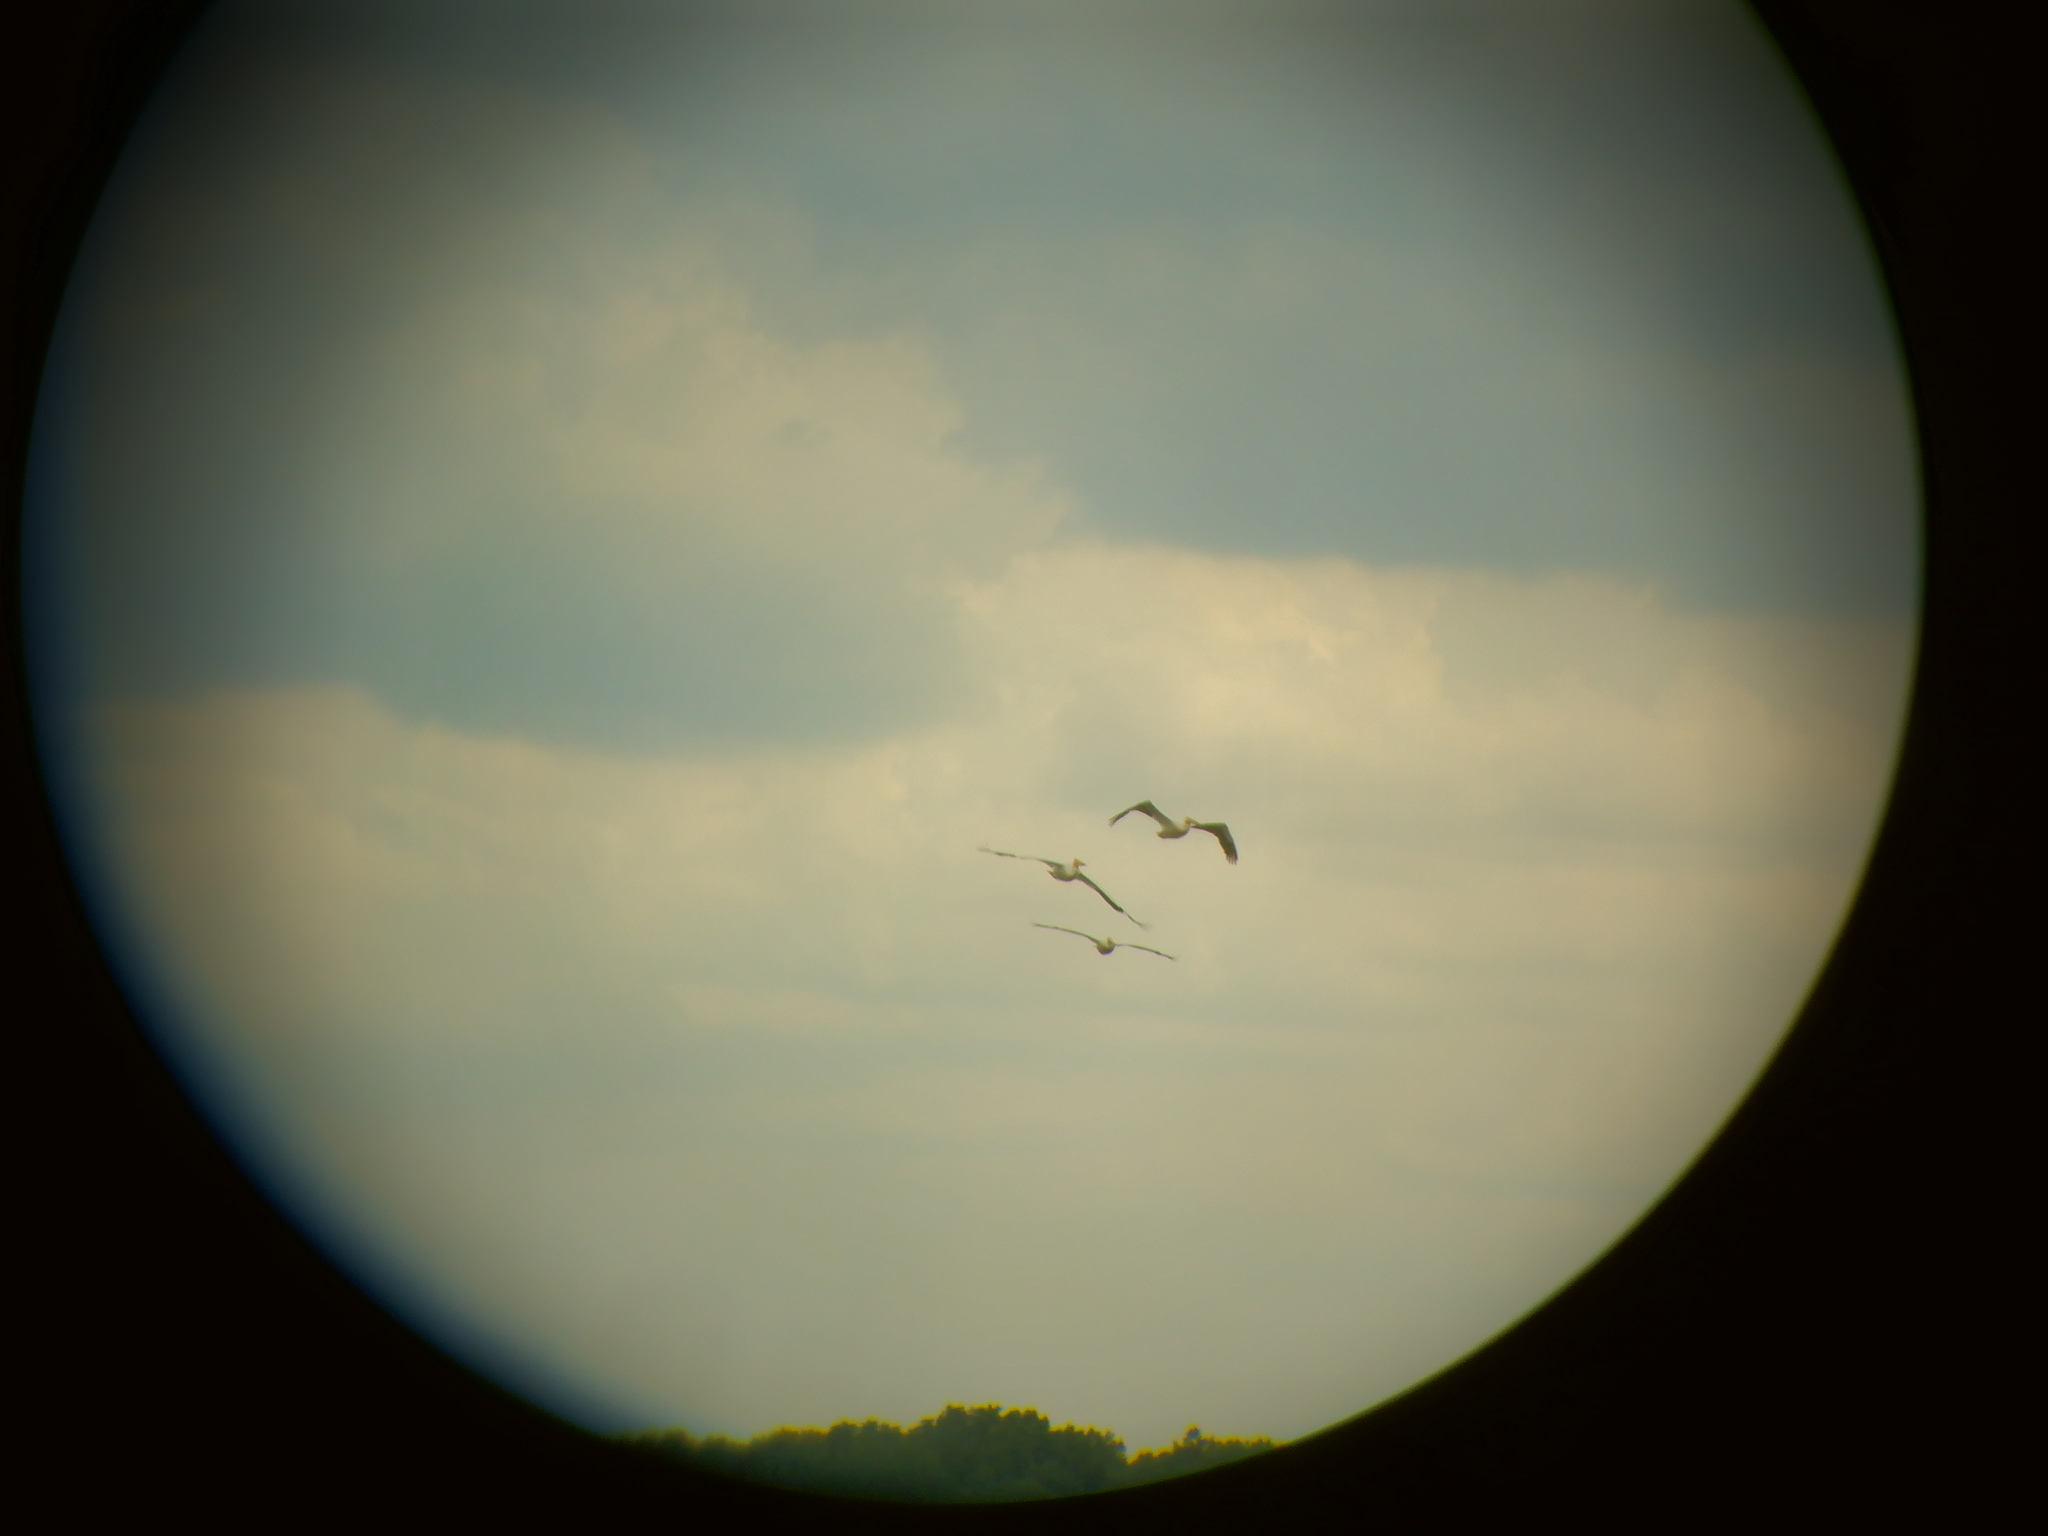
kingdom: Animalia
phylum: Chordata
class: Aves
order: Pelecaniformes
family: Pelecanidae
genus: Pelecanus
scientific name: Pelecanus erythrorhynchos
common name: American white pelican
